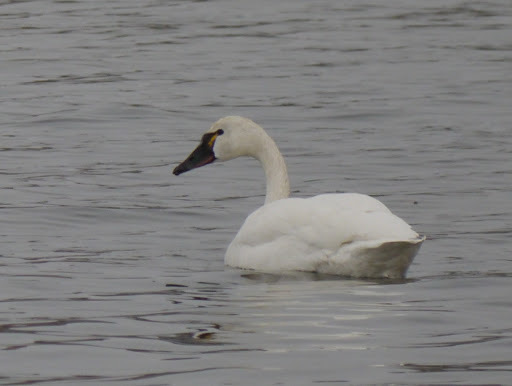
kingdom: Animalia
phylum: Chordata
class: Aves
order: Anseriformes
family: Anatidae
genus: Cygnus
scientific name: Cygnus columbianus
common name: Tundra swan
